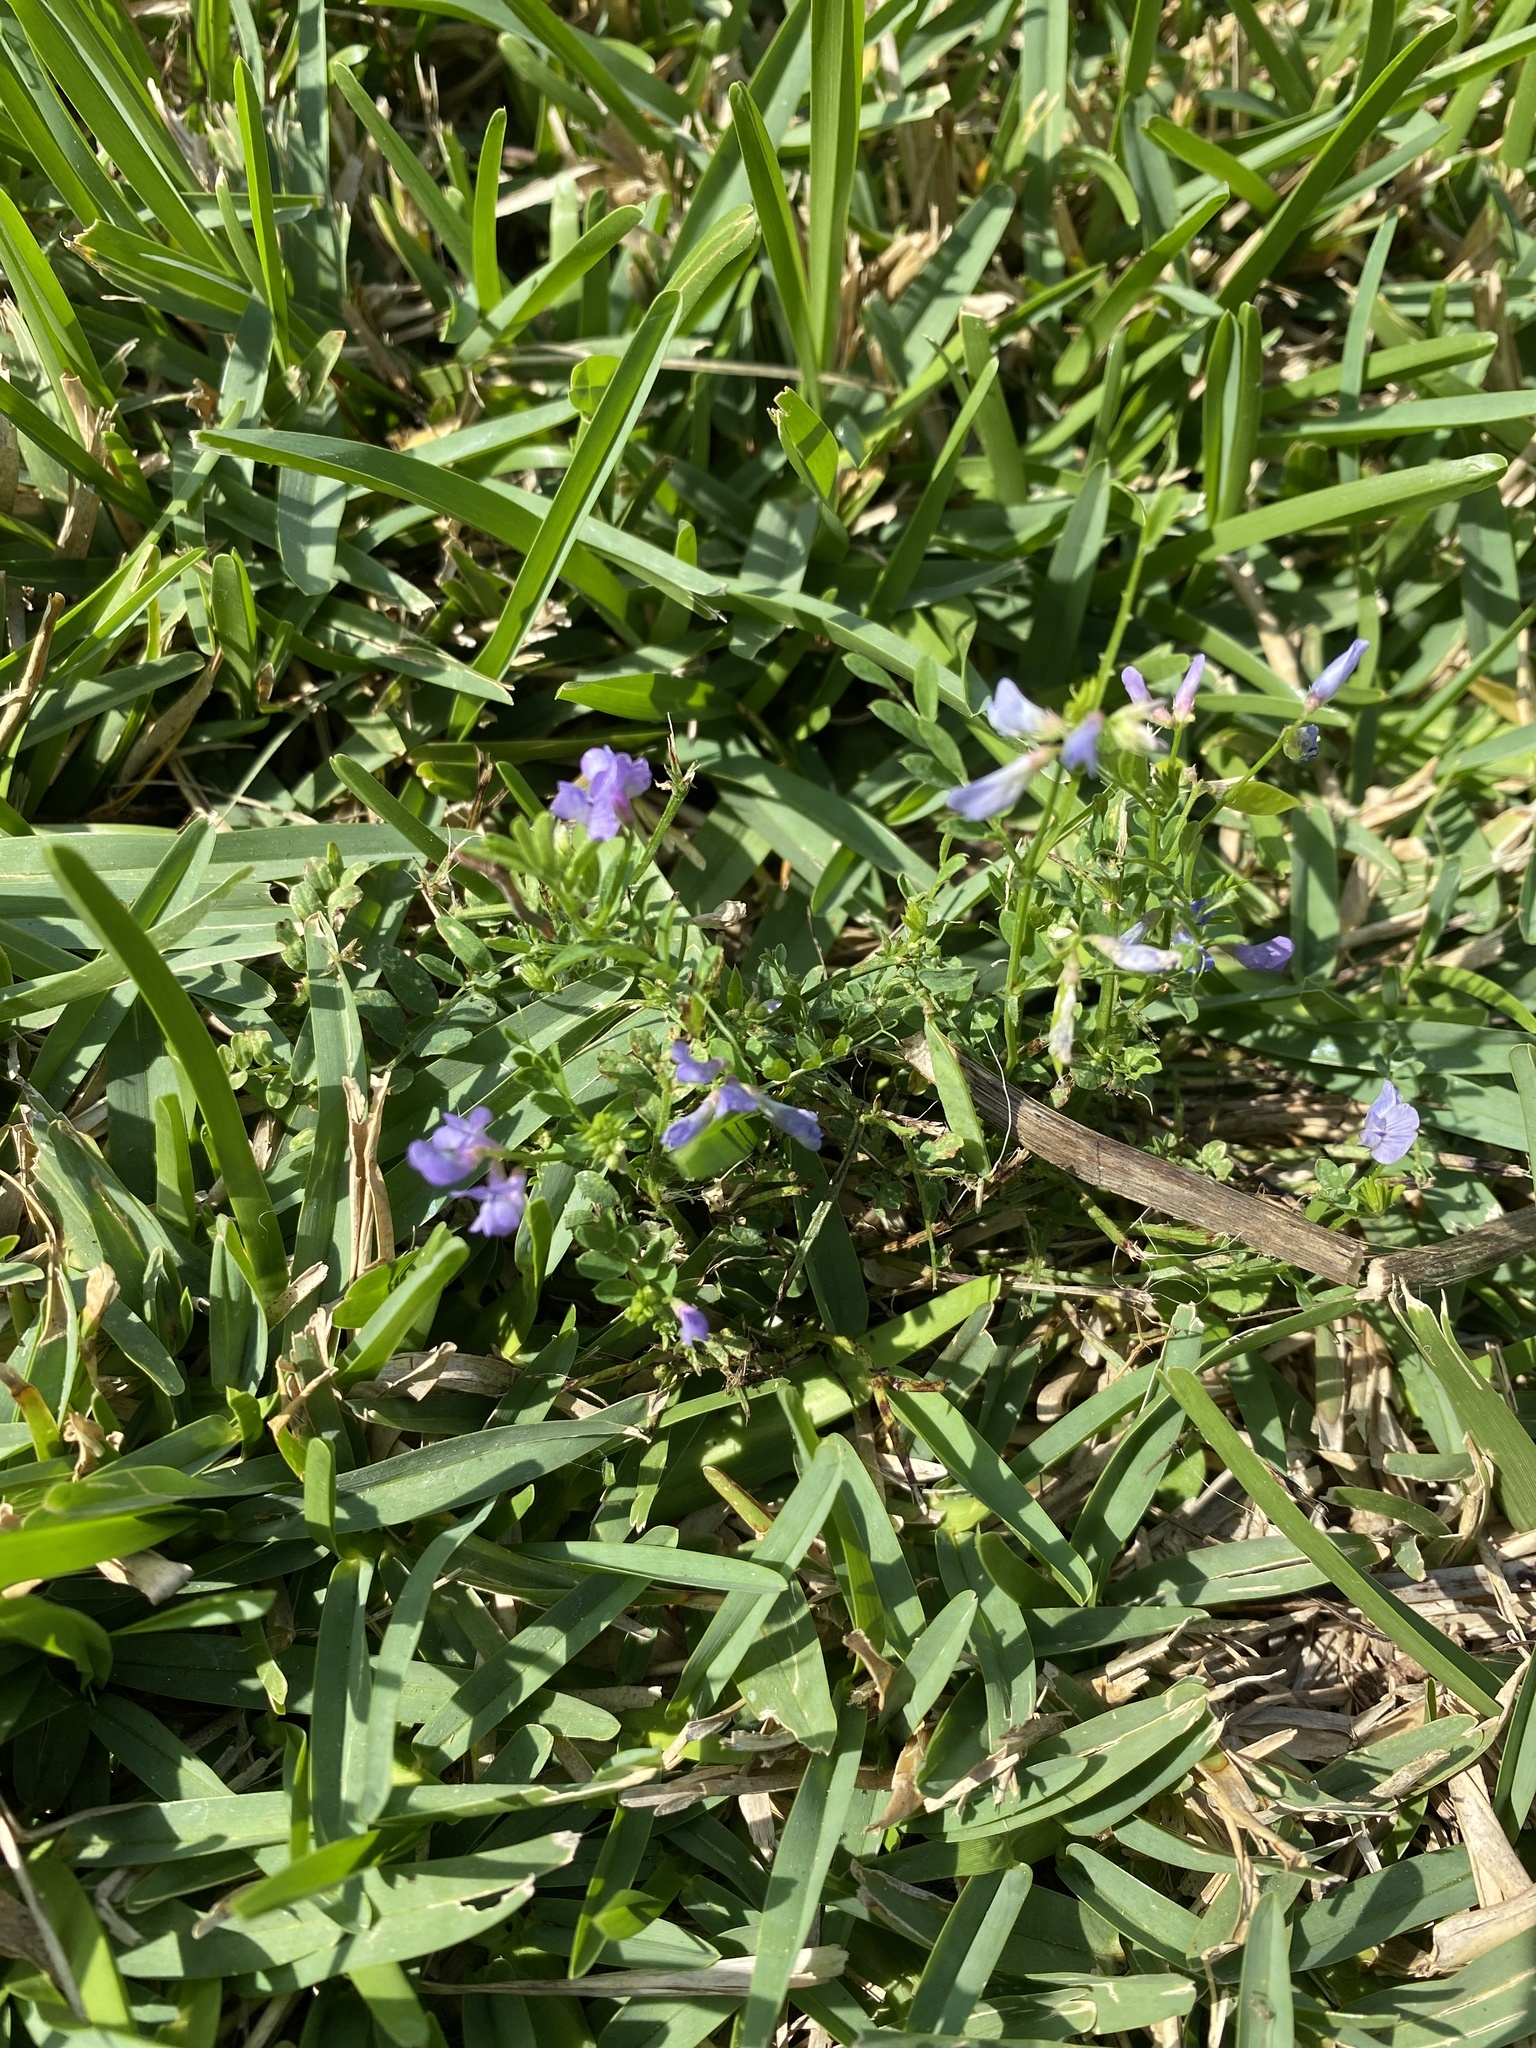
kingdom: Plantae
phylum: Tracheophyta
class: Magnoliopsida
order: Fabales
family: Fabaceae
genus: Vicia
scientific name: Vicia ludoviciana
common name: Louisiana vetch
